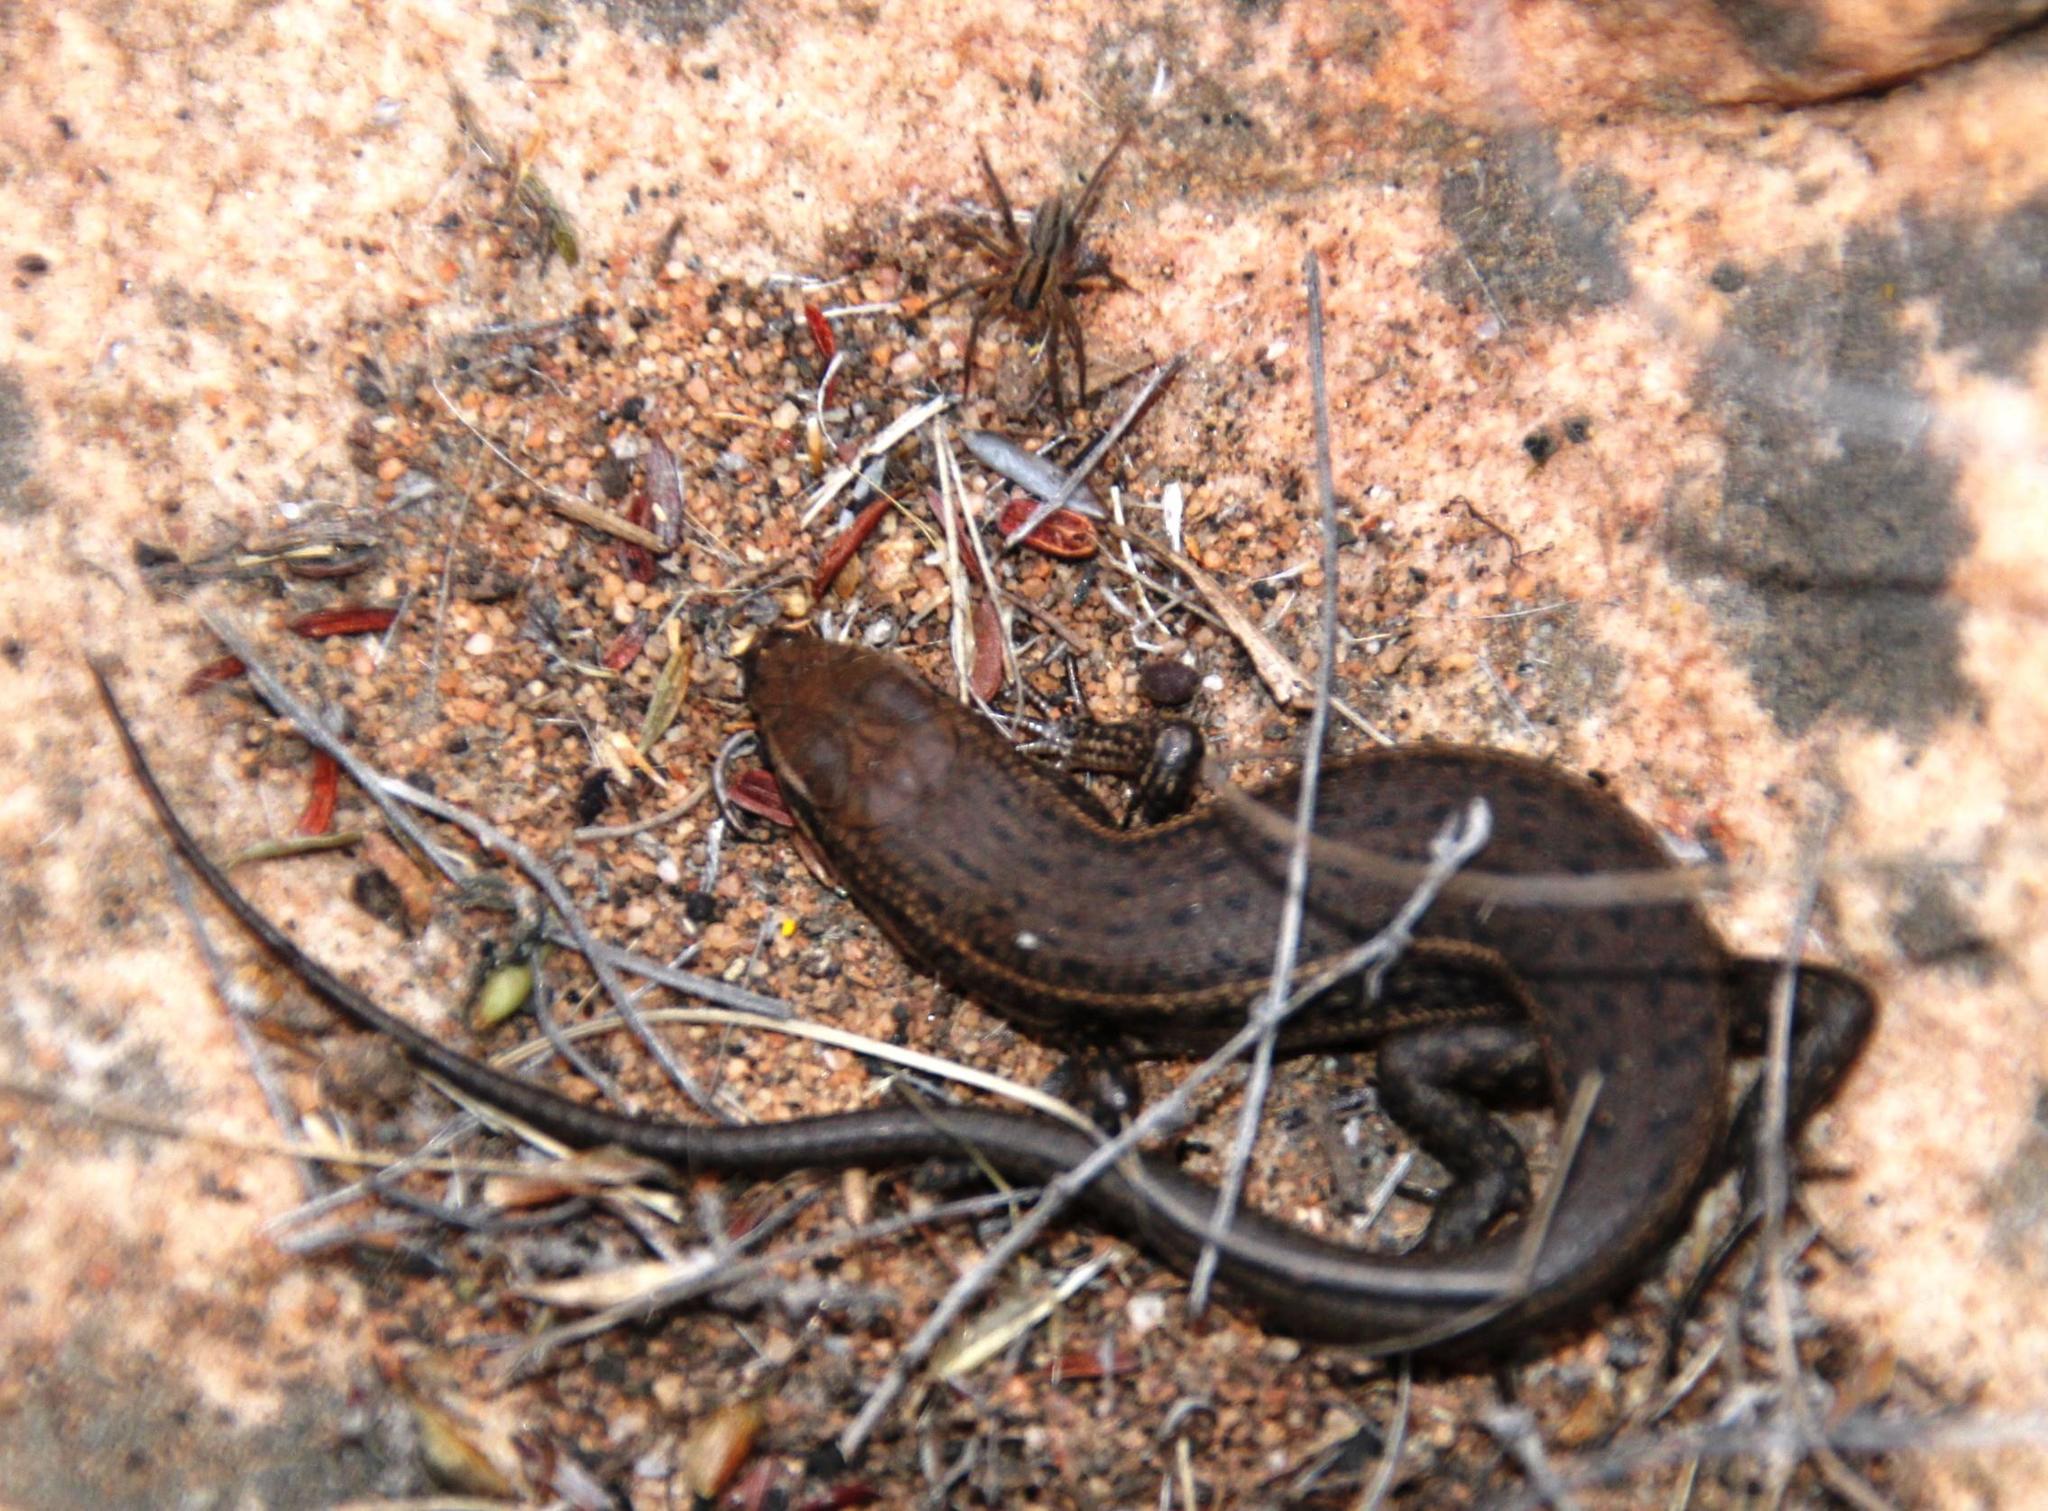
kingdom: Animalia
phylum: Chordata
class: Squamata
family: Scincidae
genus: Trachylepis
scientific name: Trachylepis variegata
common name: Variegated skink
